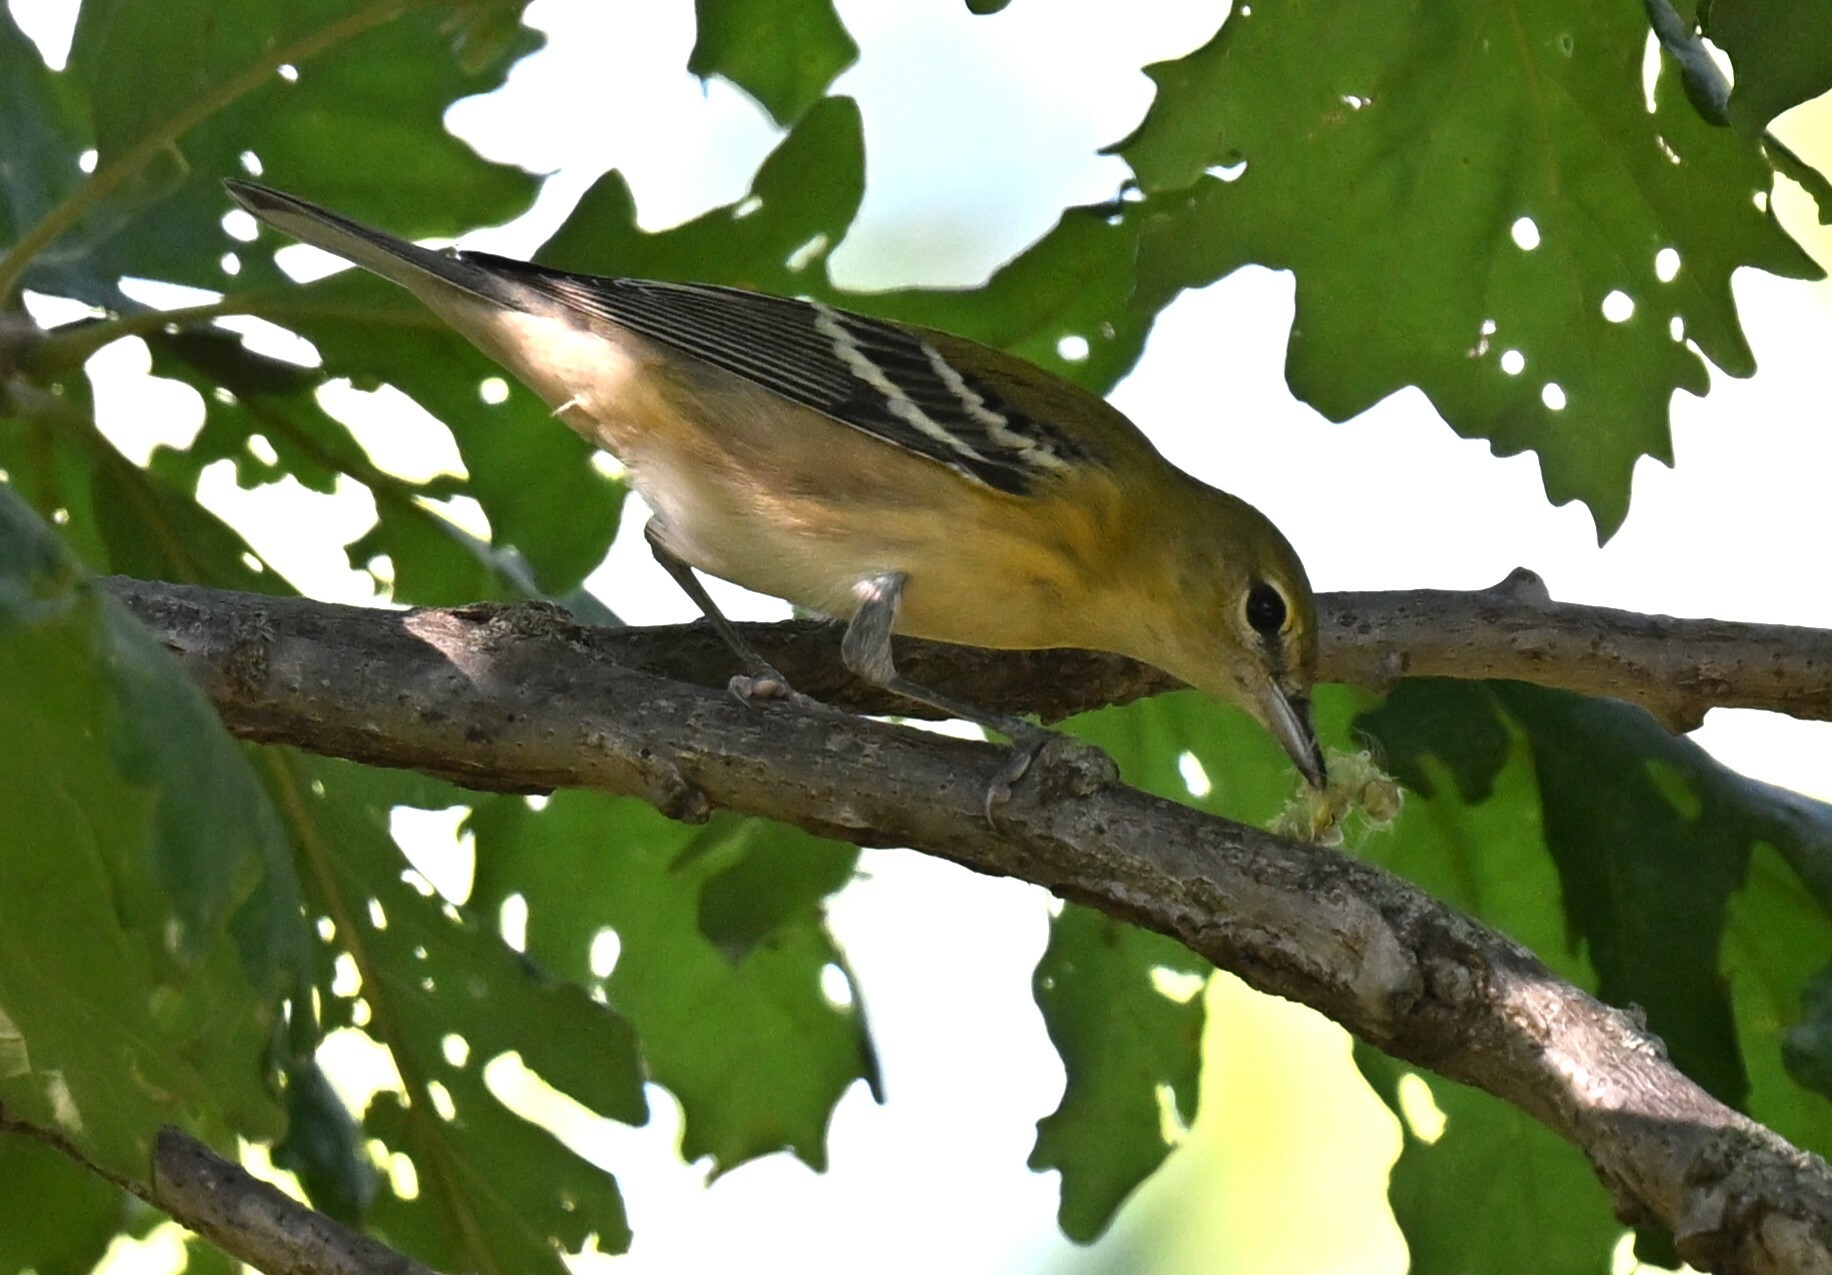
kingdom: Animalia
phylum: Chordata
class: Aves
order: Passeriformes
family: Parulidae
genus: Setophaga
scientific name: Setophaga castanea
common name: Bay-breasted warbler
